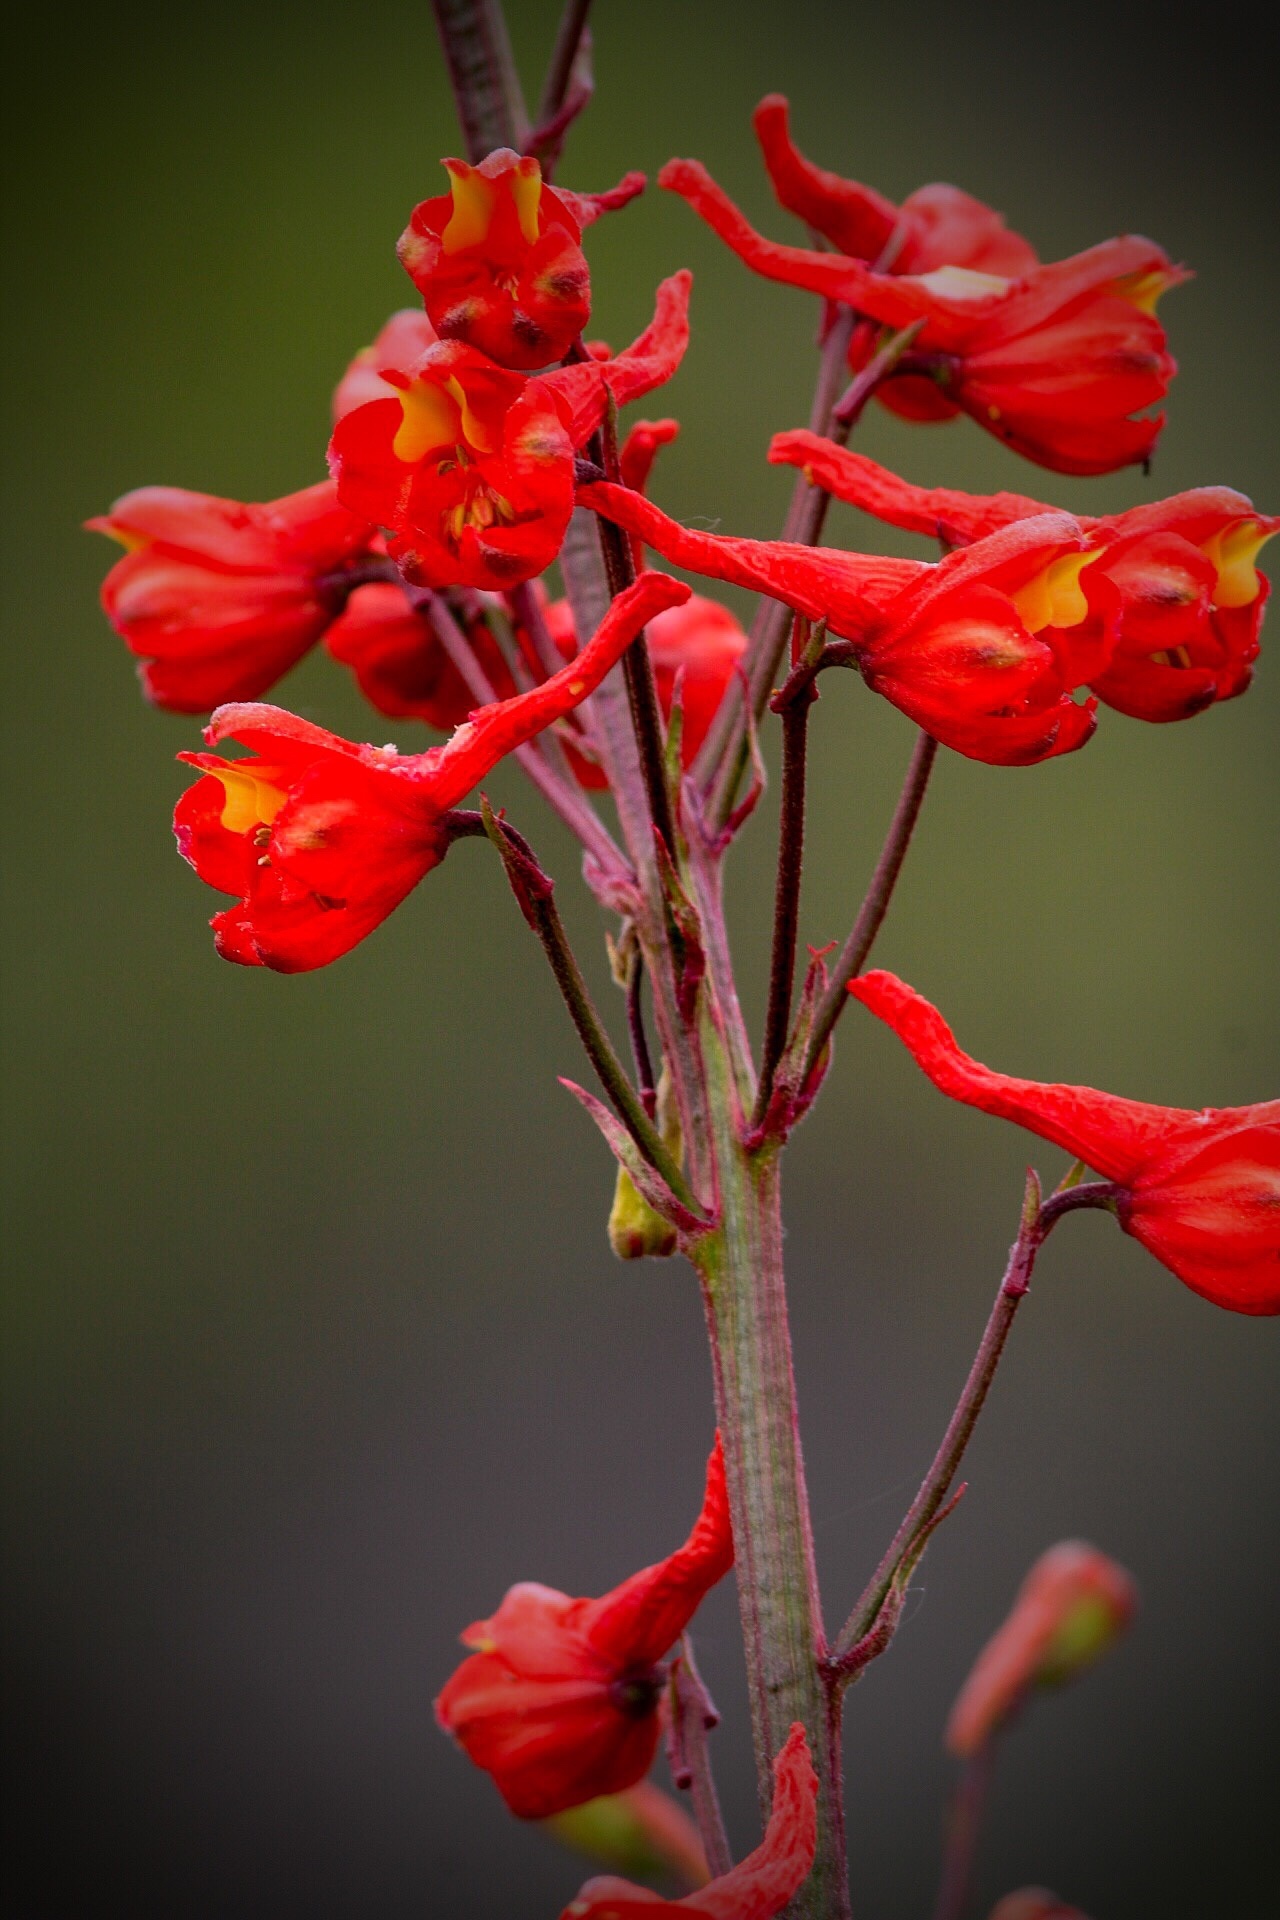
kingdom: Plantae
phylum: Tracheophyta
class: Magnoliopsida
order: Ranunculales
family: Ranunculaceae
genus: Delphinium
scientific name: Delphinium cardinale
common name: Scarlet larkspur
